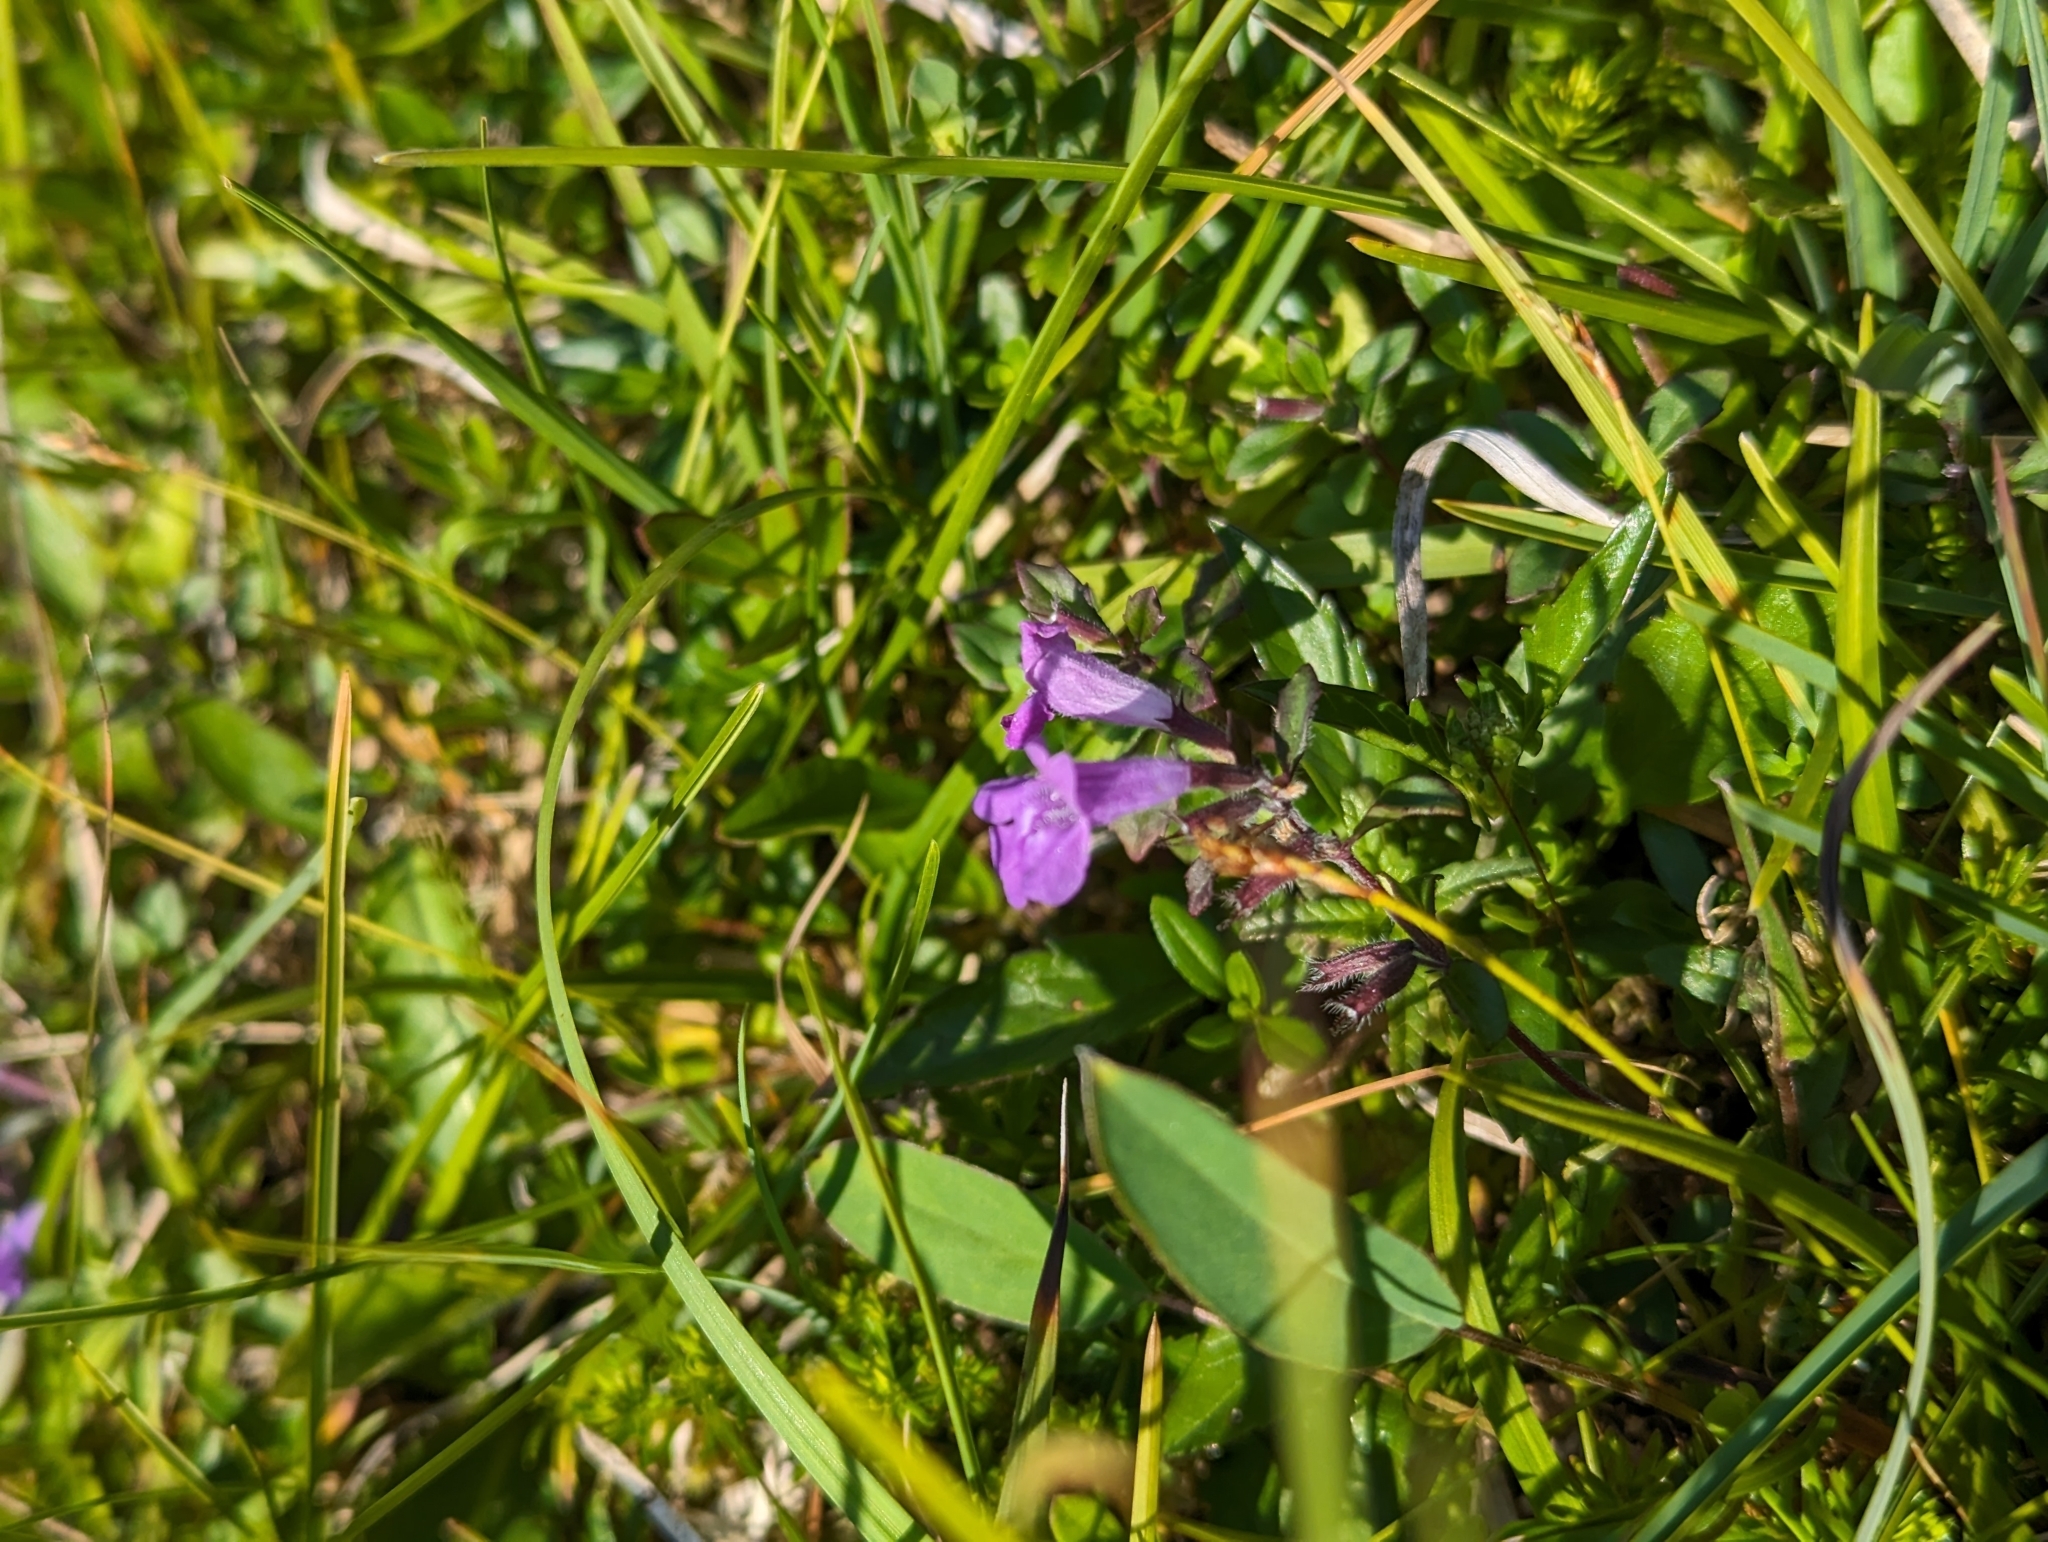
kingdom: Plantae
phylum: Tracheophyta
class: Magnoliopsida
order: Lamiales
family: Lamiaceae
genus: Clinopodium
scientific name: Clinopodium alpinum
